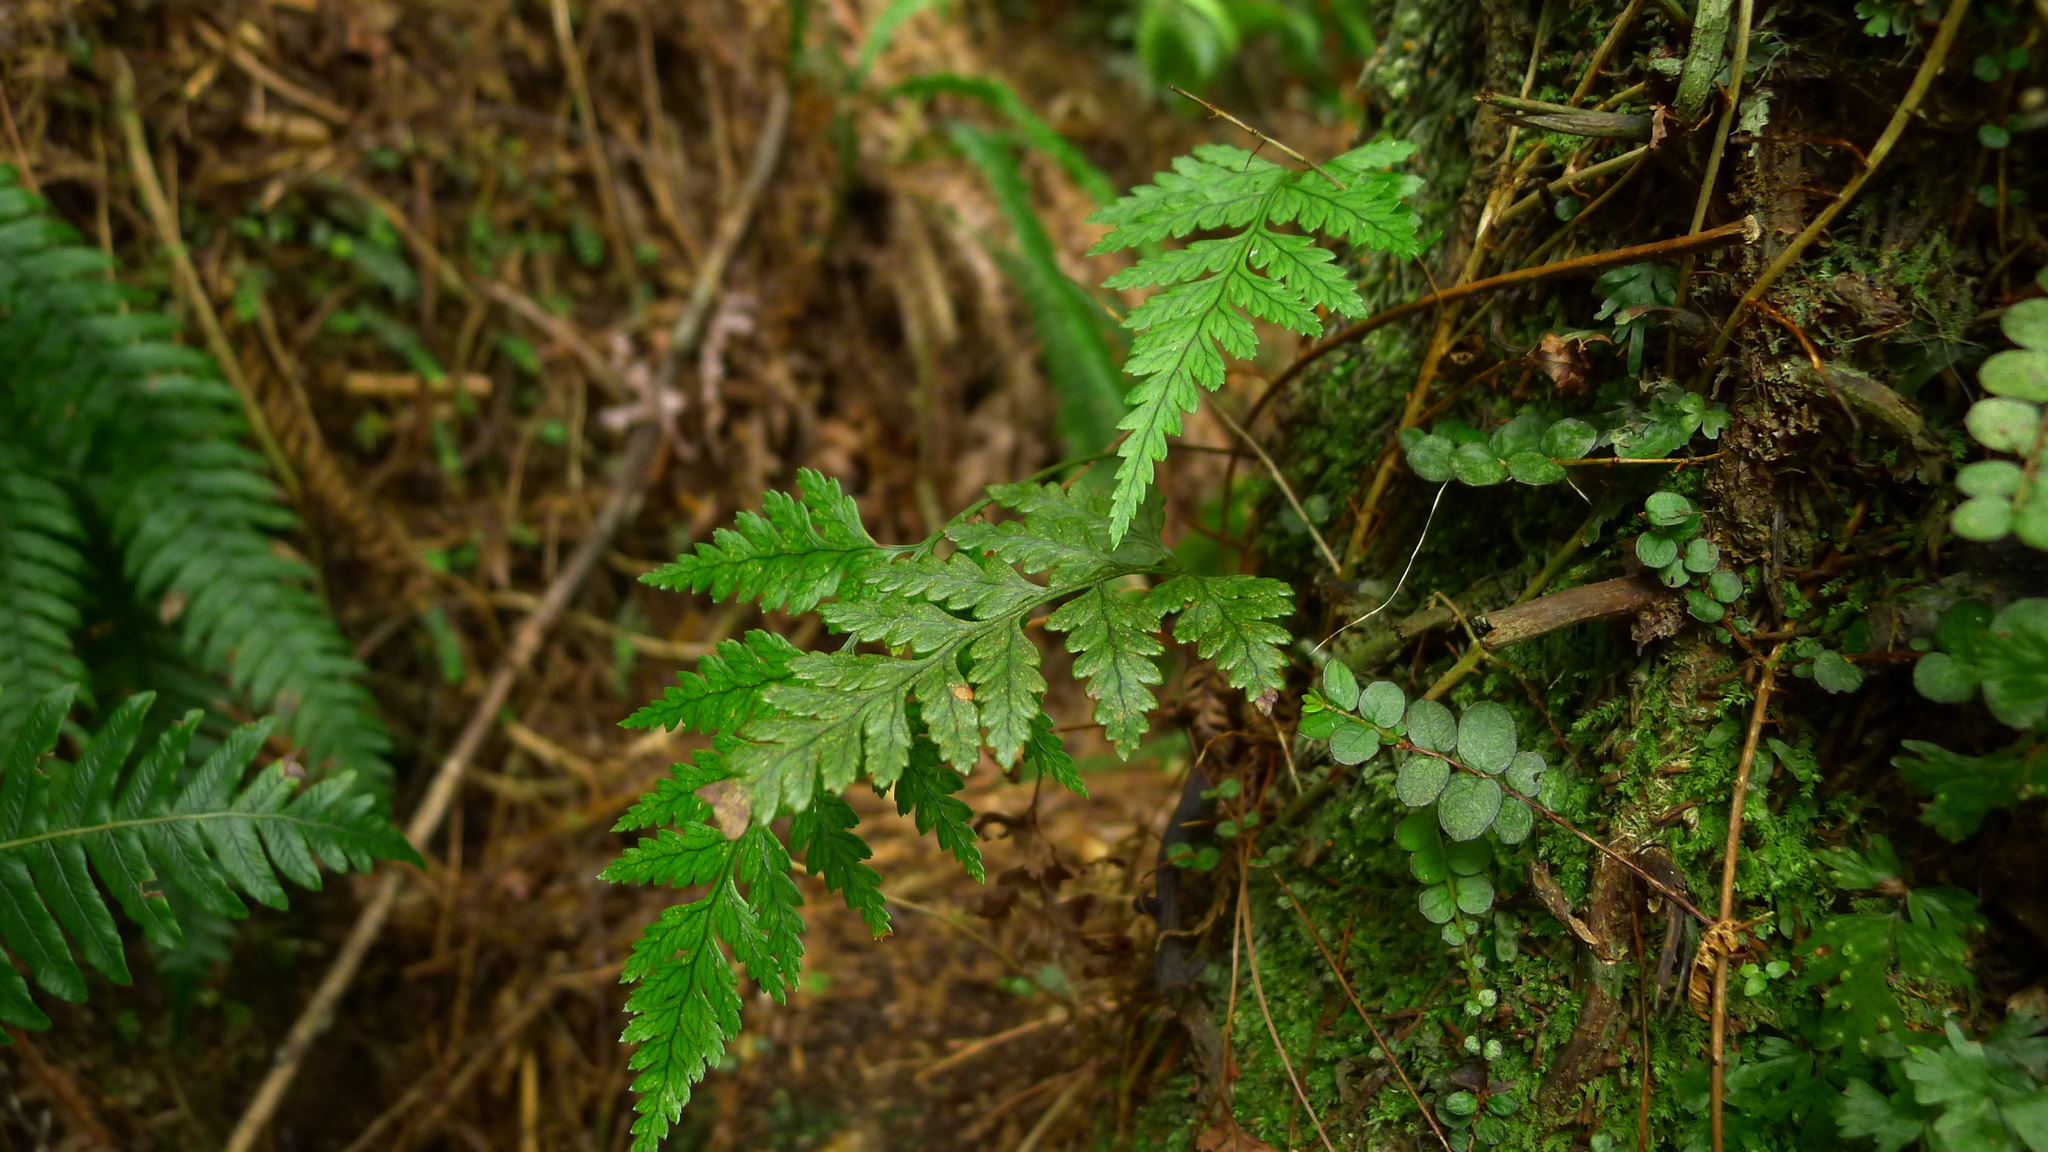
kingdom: Plantae
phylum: Tracheophyta
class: Polypodiopsida
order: Polypodiales
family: Dryopteridaceae
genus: Rumohra
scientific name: Rumohra adiantiformis
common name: Leather fern
